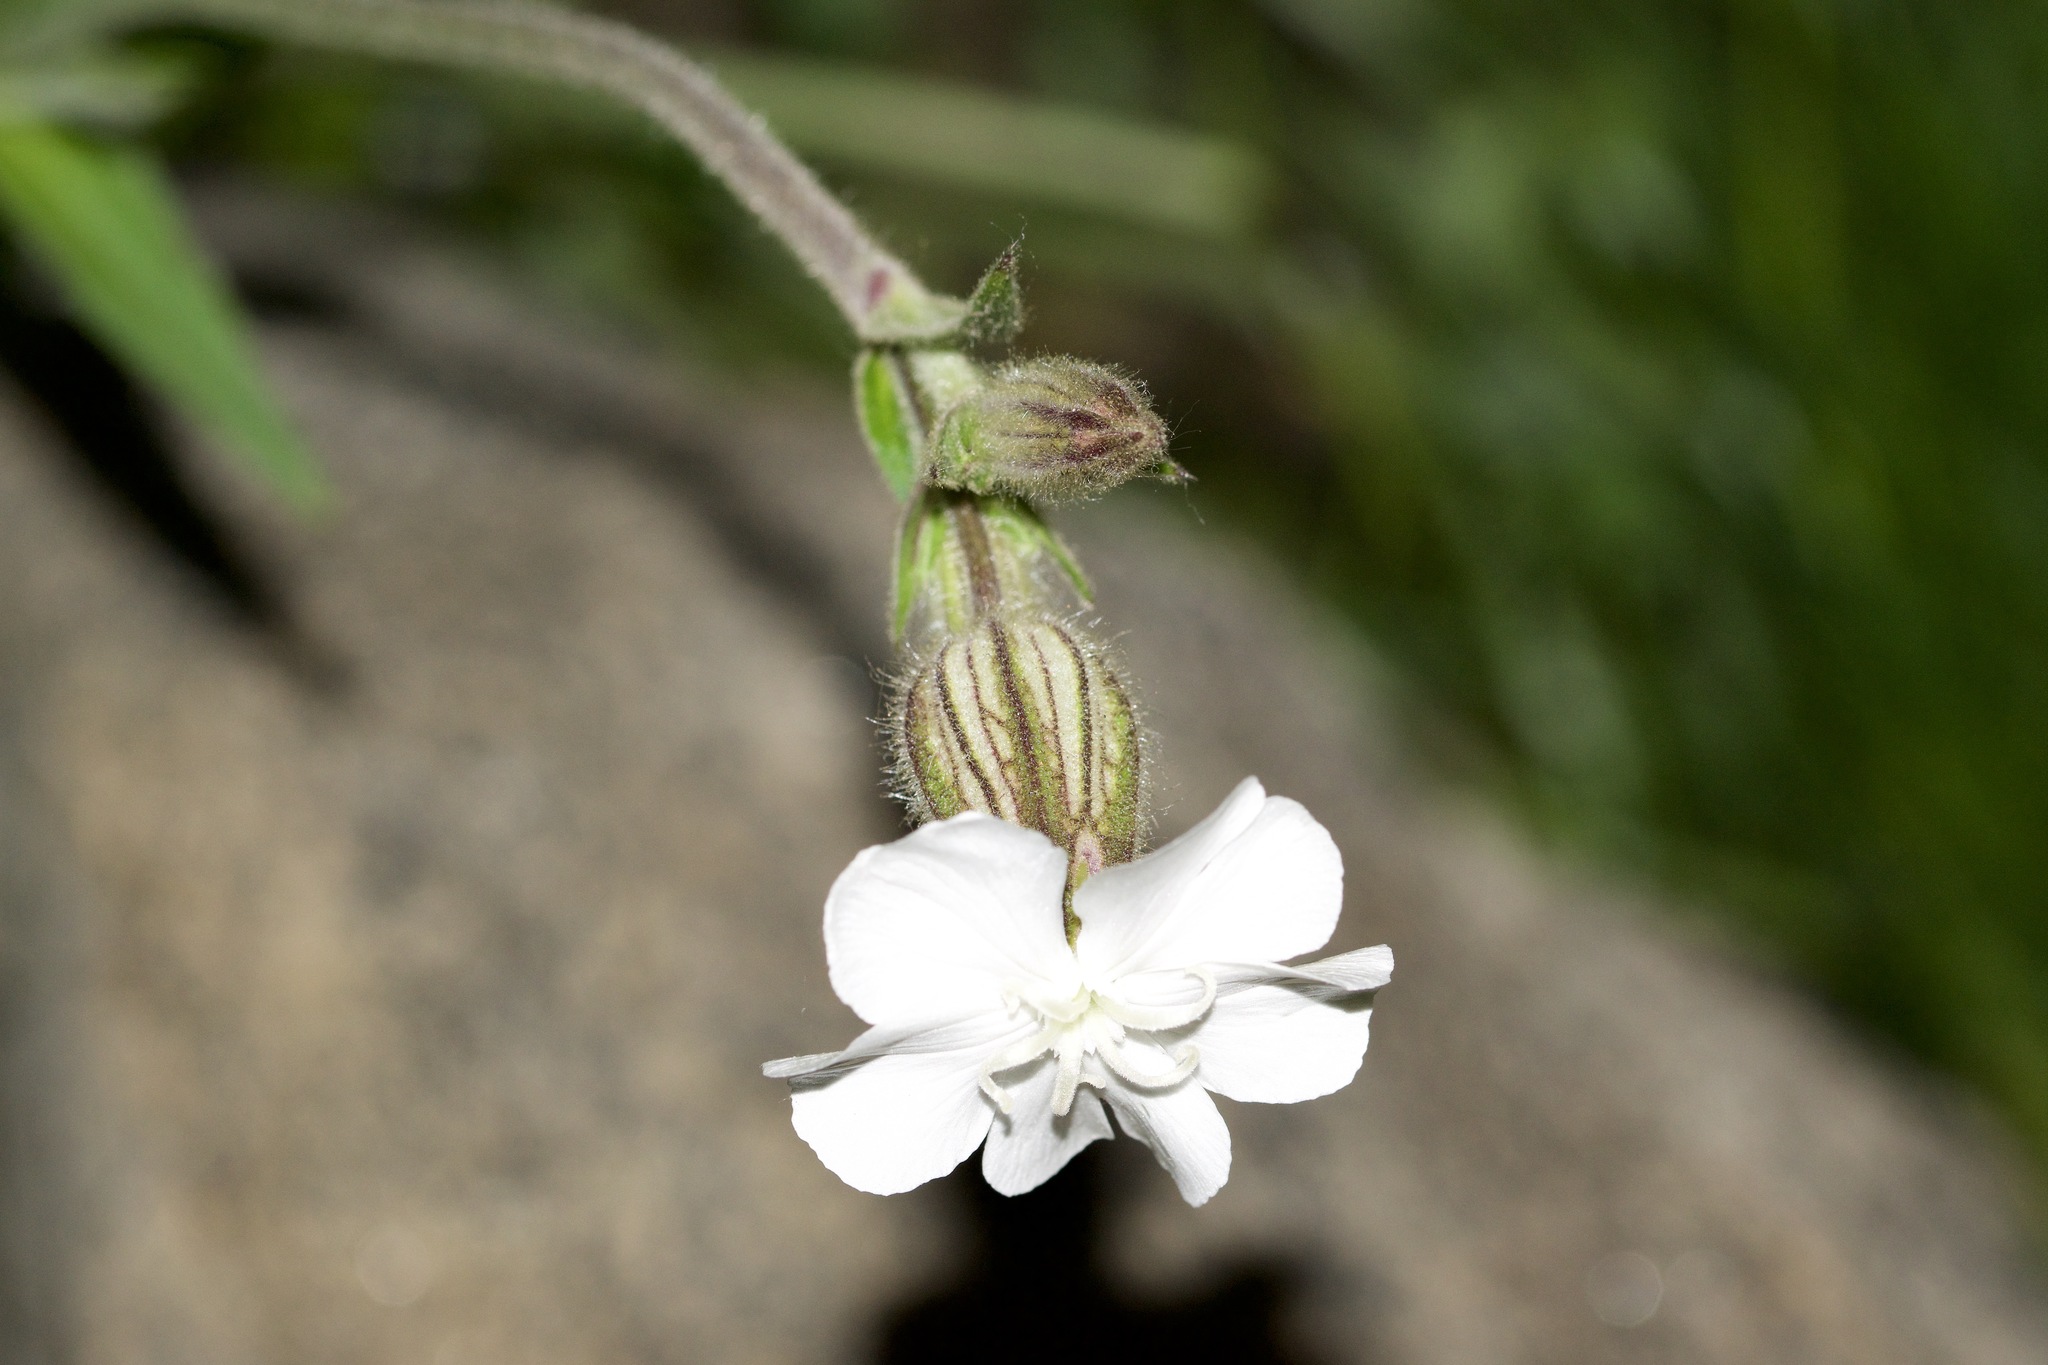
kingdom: Plantae
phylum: Tracheophyta
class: Magnoliopsida
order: Caryophyllales
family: Caryophyllaceae
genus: Silene
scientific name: Silene latifolia
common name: White campion
